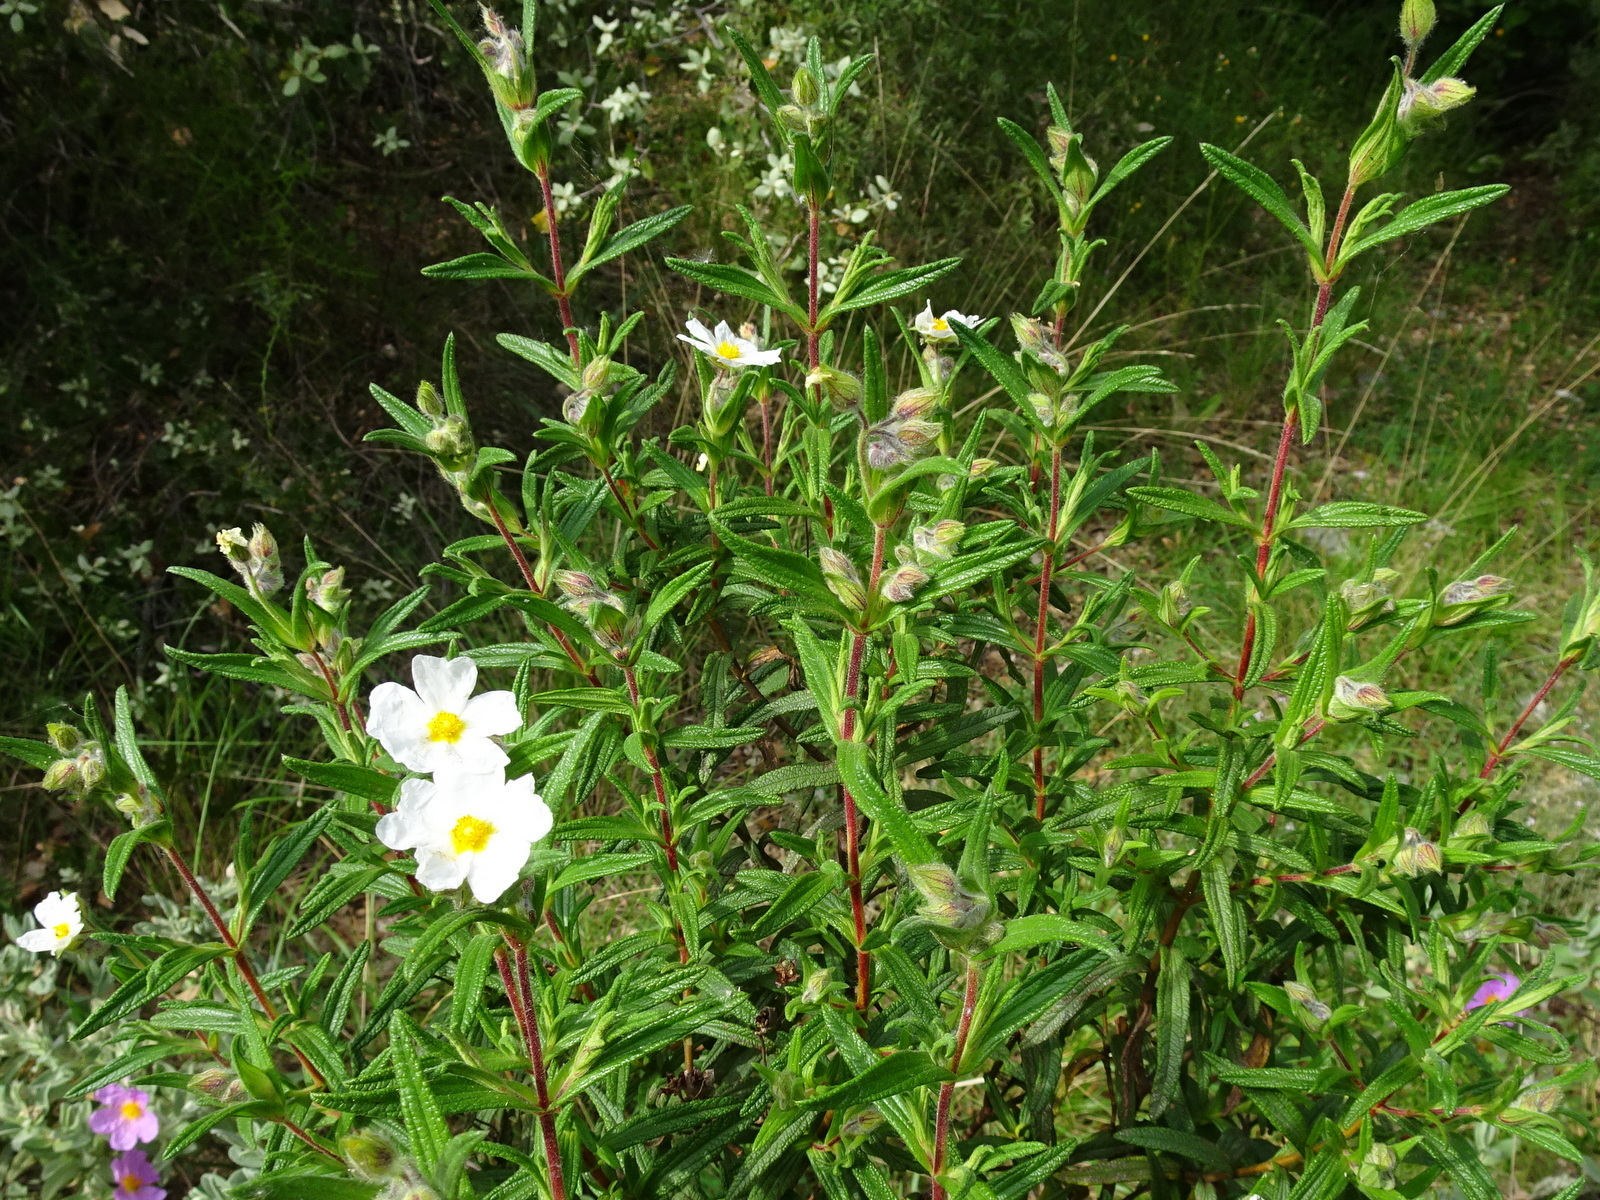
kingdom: Plantae
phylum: Tracheophyta
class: Magnoliopsida
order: Malvales
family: Cistaceae
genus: Cistus
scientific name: Cistus monspeliensis
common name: Montpelier cistus
